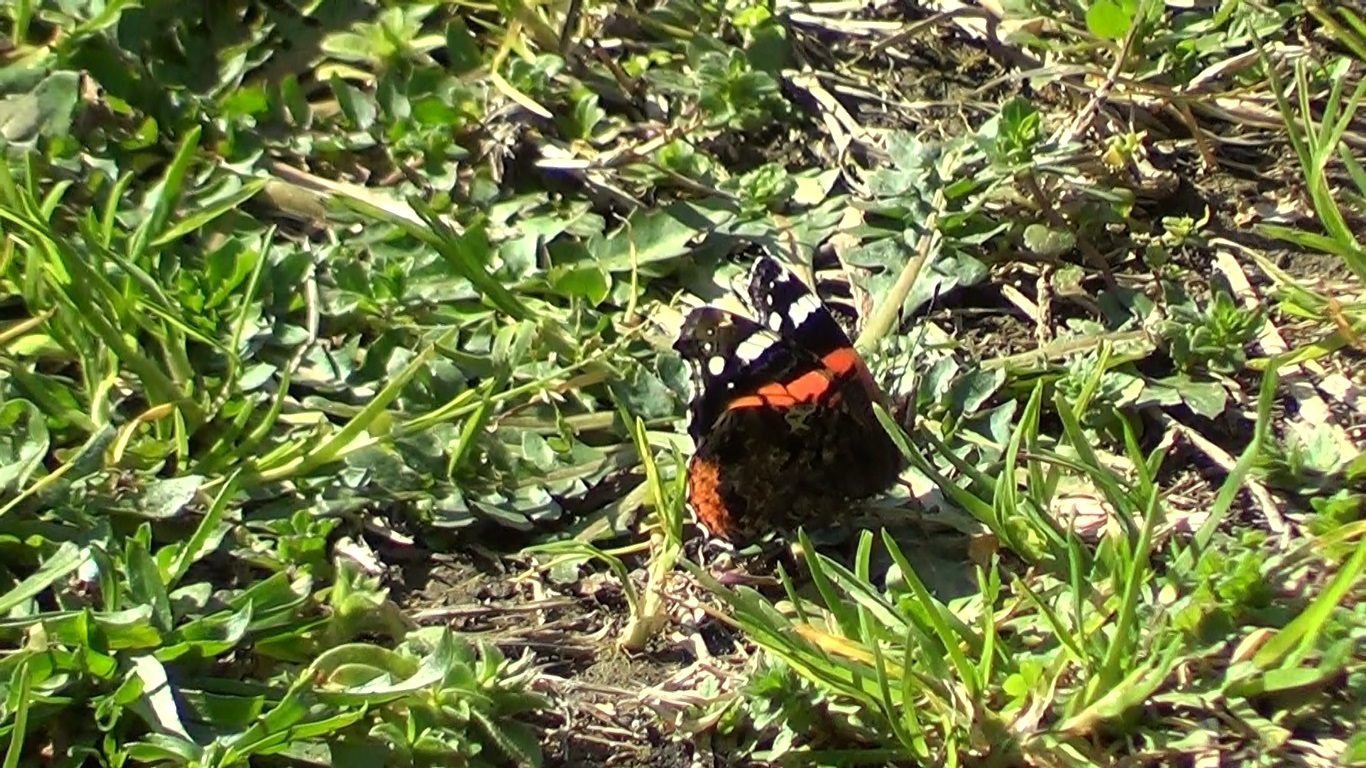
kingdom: Animalia
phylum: Arthropoda
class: Insecta
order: Lepidoptera
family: Nymphalidae
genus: Vanessa
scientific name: Vanessa atalanta
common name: Red admiral
